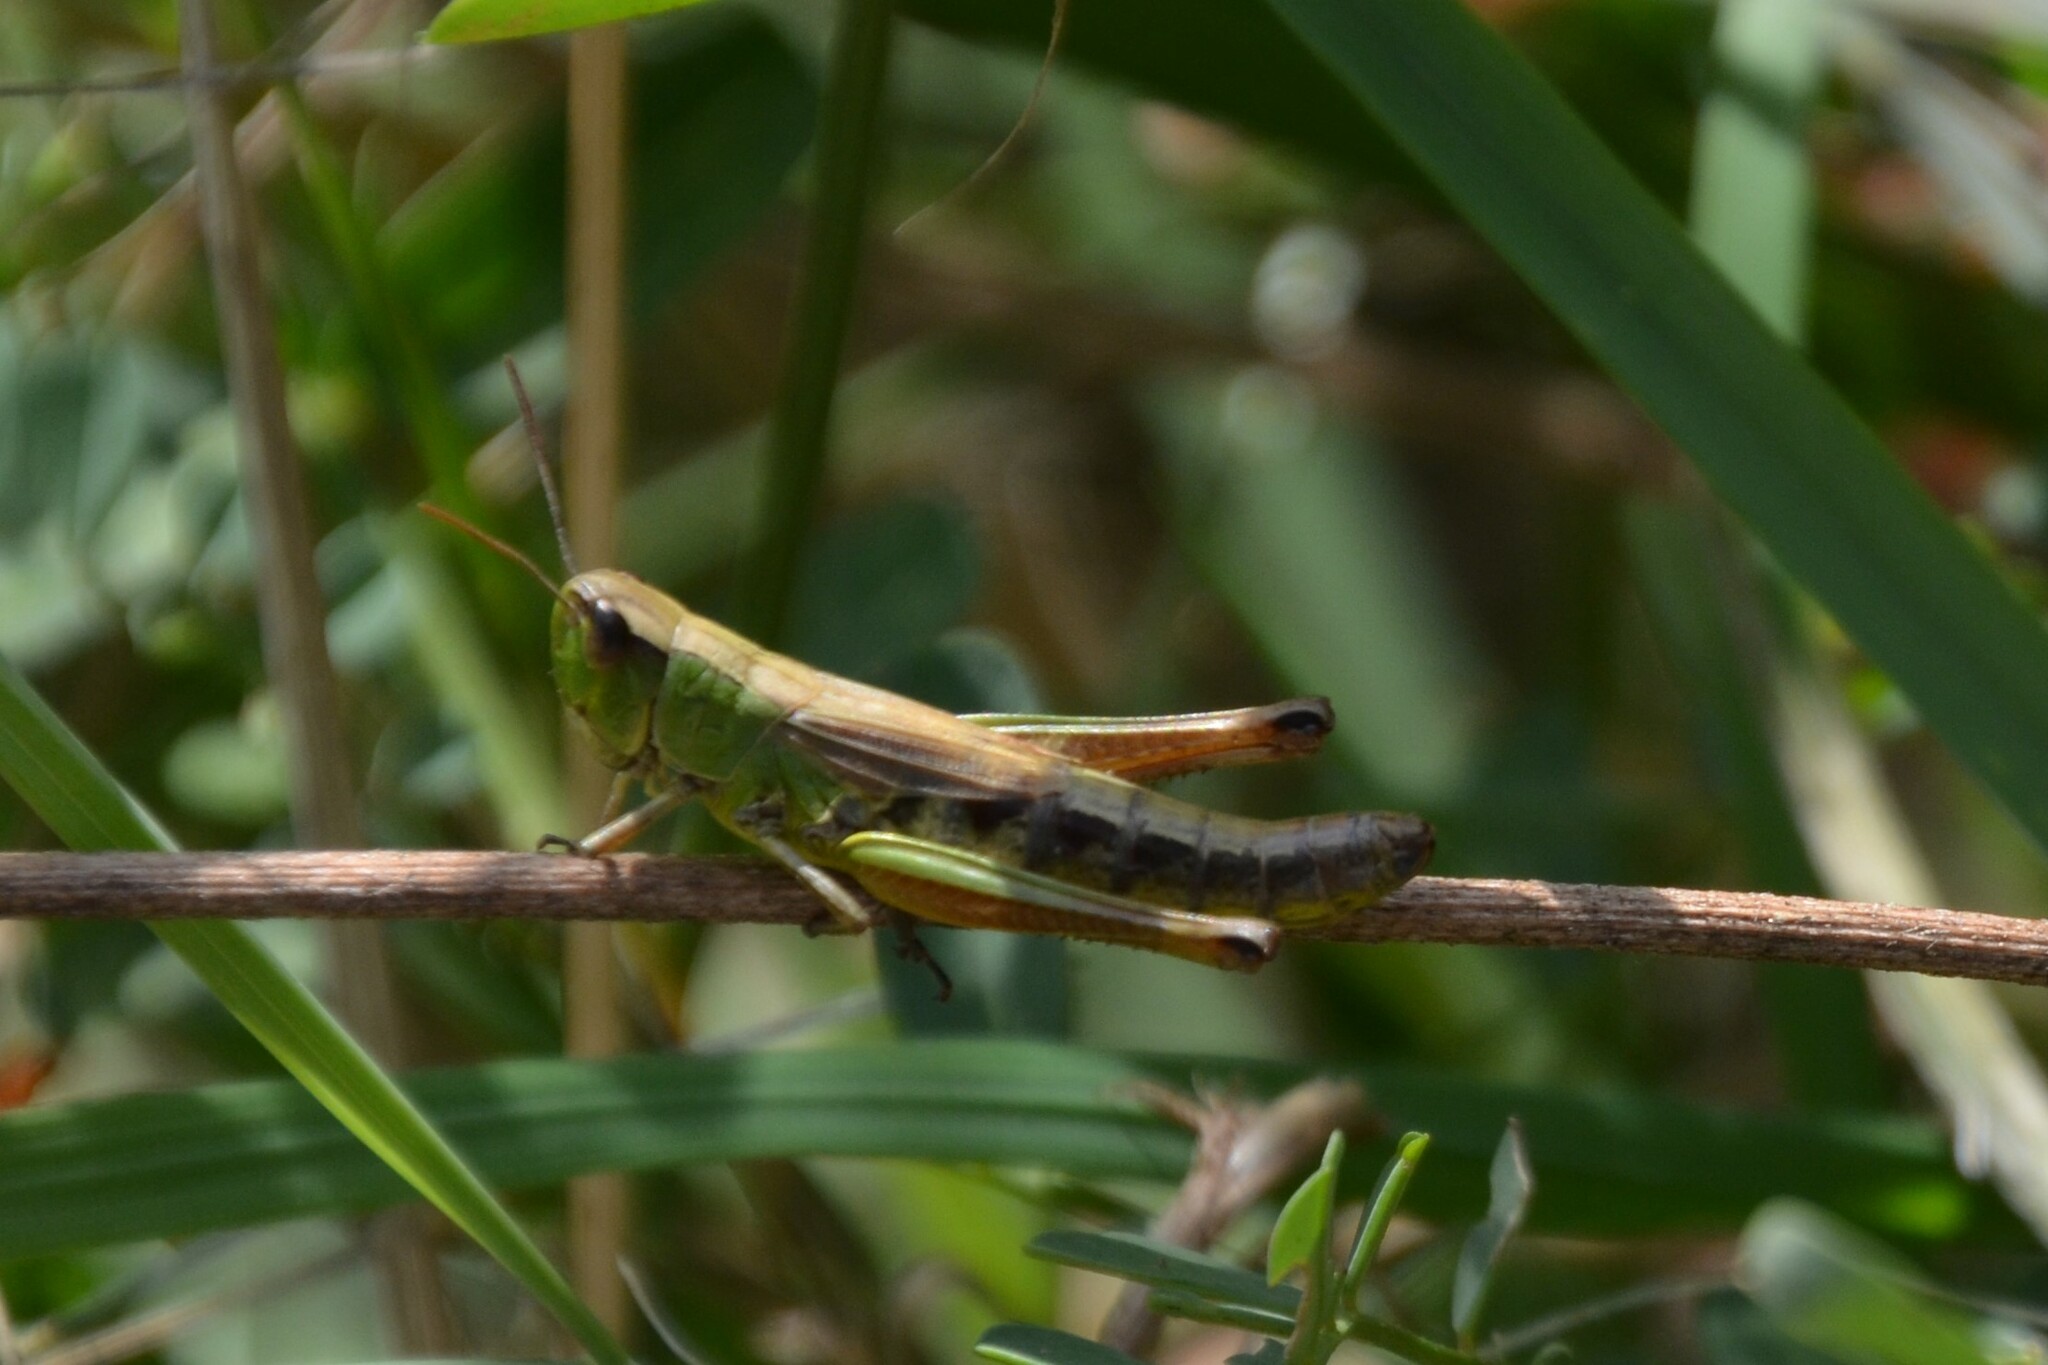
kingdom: Animalia
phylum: Arthropoda
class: Insecta
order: Orthoptera
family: Acrididae
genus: Pseudochorthippus
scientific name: Pseudochorthippus parallelus
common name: Meadow grasshopper
